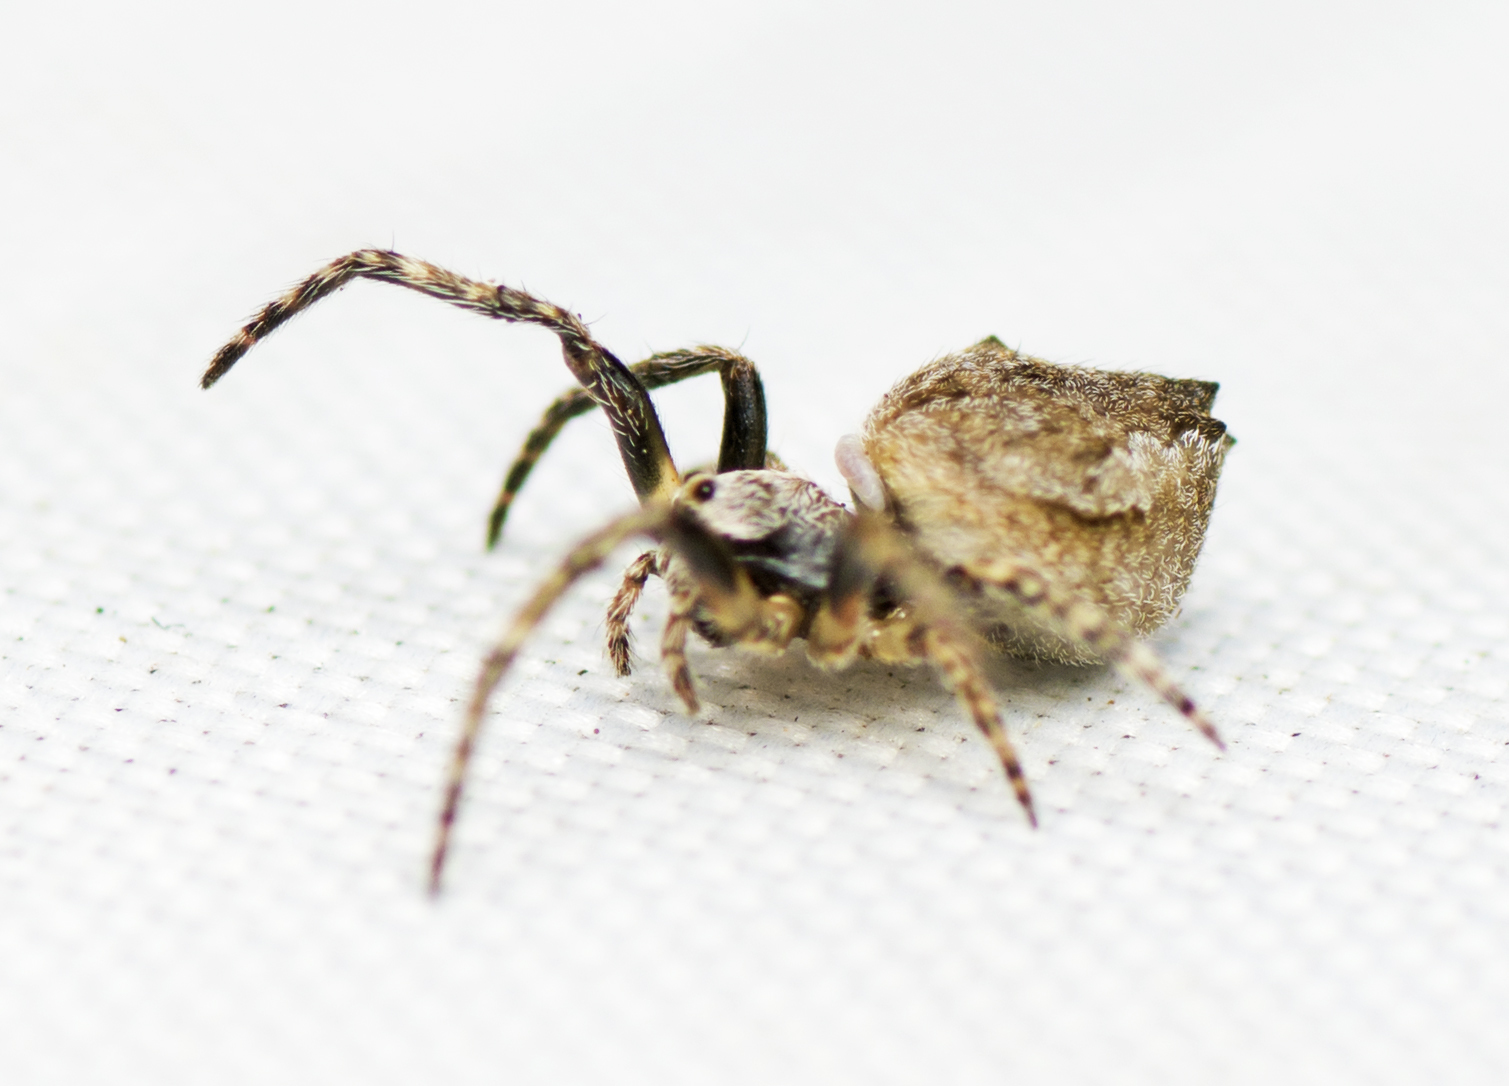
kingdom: Animalia
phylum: Arthropoda
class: Arachnida
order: Araneae
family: Araneidae
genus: Eriophora
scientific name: Eriophora pustulosa
